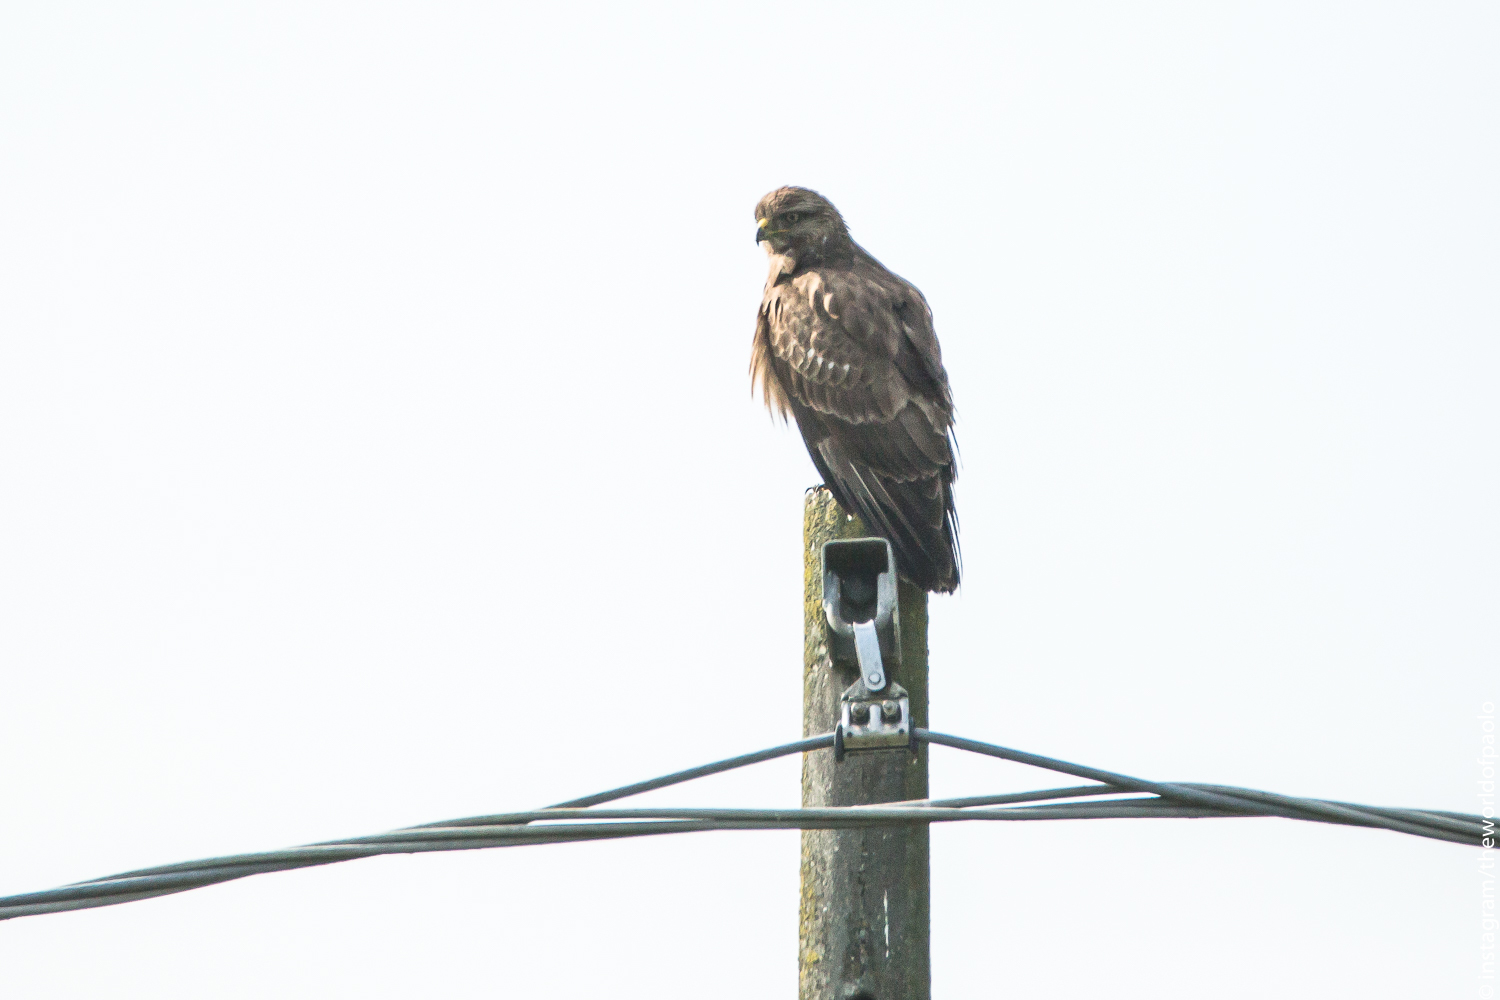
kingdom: Animalia
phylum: Chordata
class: Aves
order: Accipitriformes
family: Accipitridae
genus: Buteo
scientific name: Buteo buteo
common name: Common buzzard
